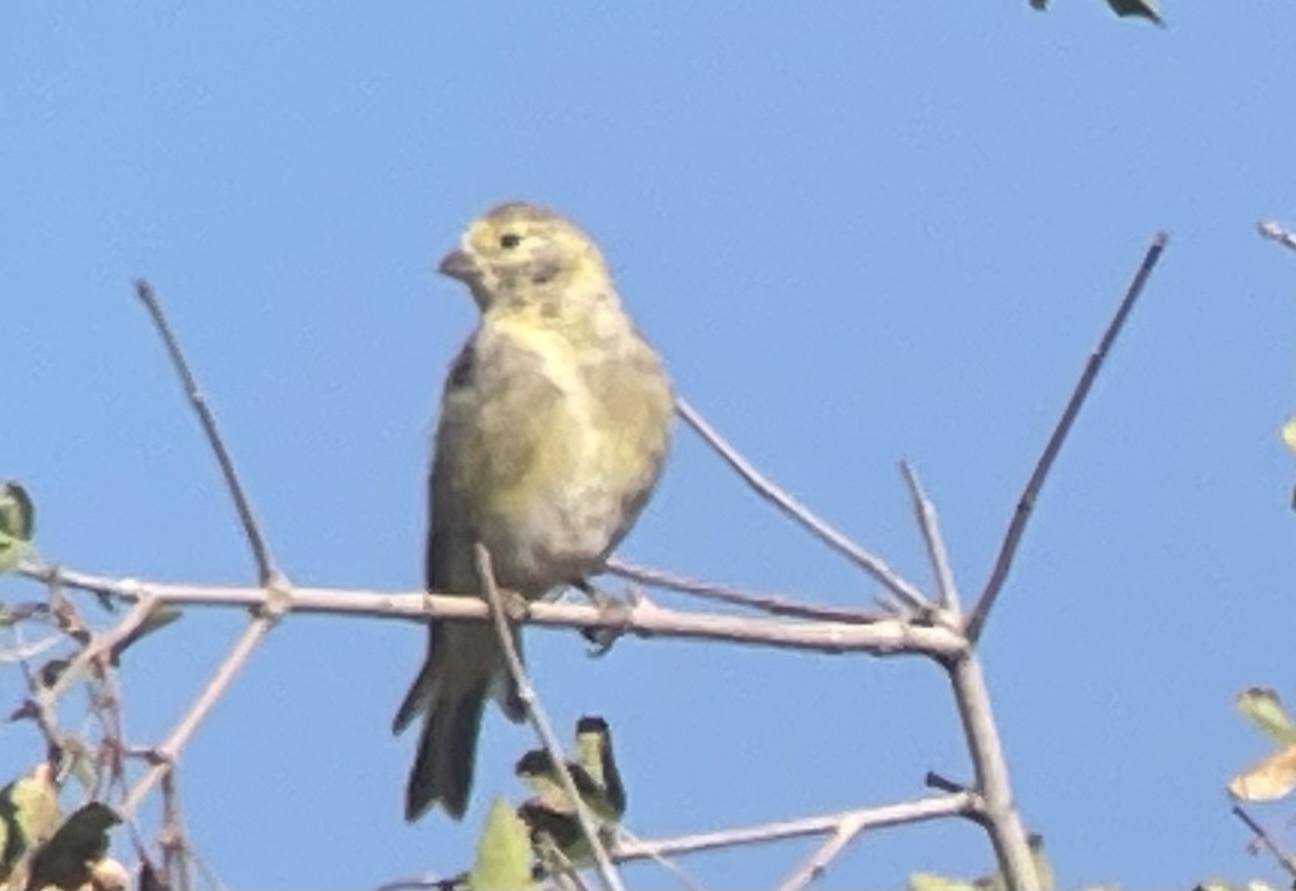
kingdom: Animalia
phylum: Chordata
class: Aves
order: Passeriformes
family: Fringillidae
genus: Serinus
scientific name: Serinus syriacus
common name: Syrian serin
